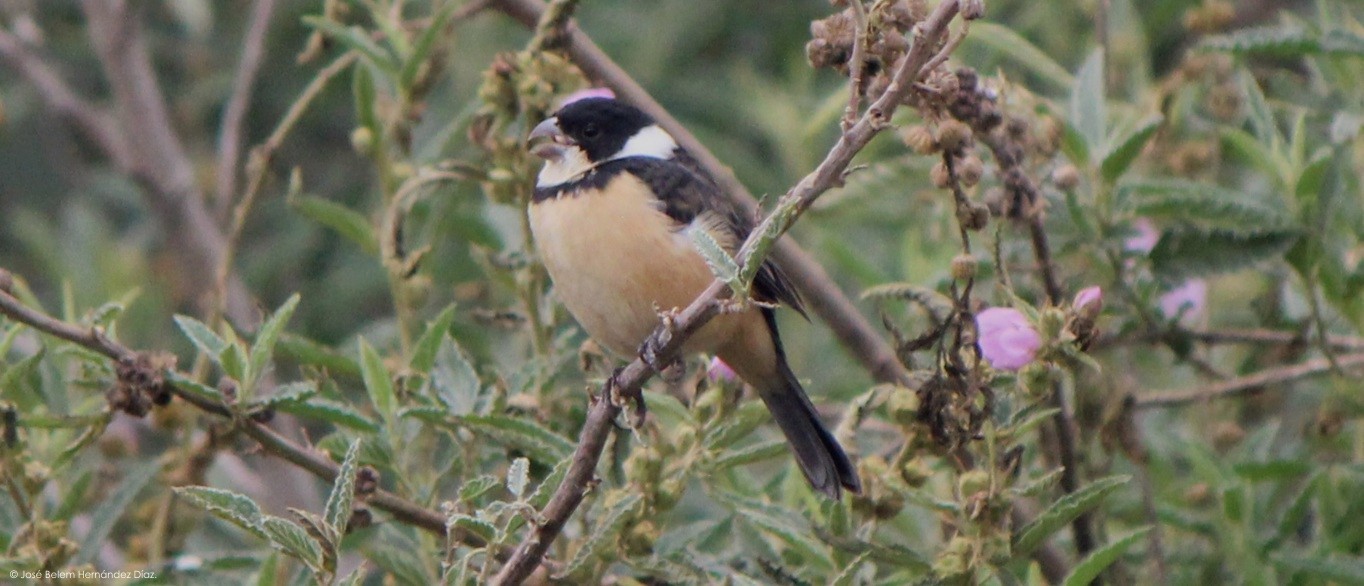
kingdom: Animalia
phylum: Chordata
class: Aves
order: Passeriformes
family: Thraupidae
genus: Sporophila
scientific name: Sporophila torqueola
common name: White-collared seedeater
